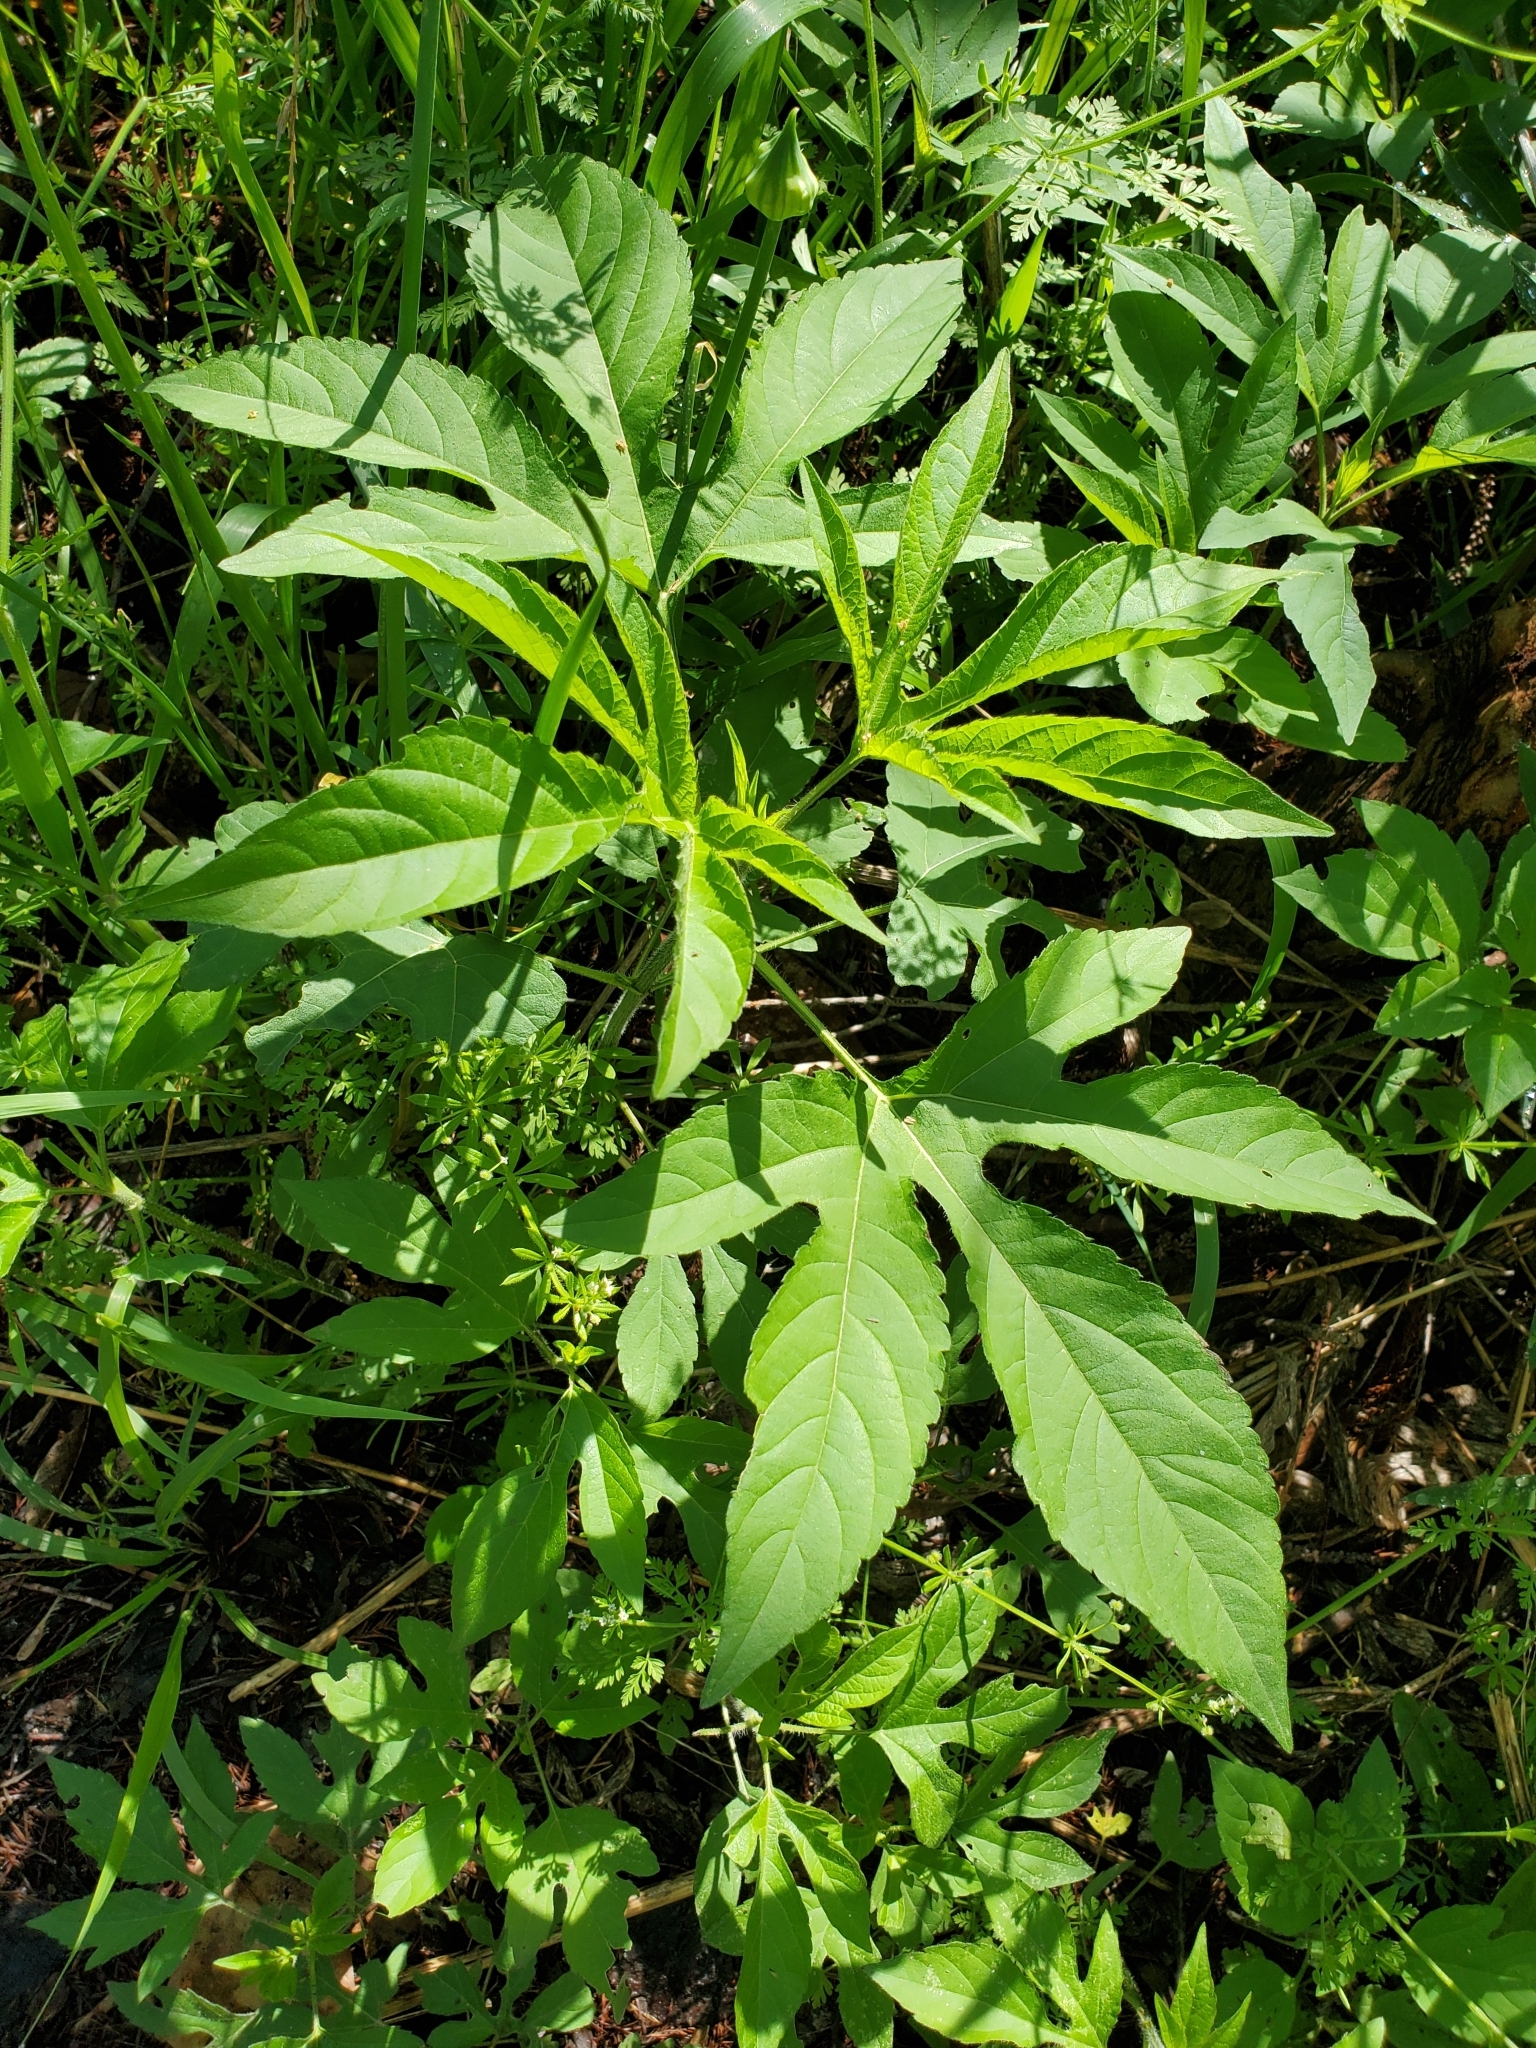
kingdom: Plantae
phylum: Tracheophyta
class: Magnoliopsida
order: Asterales
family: Asteraceae
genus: Ambrosia
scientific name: Ambrosia trifida
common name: Giant ragweed
